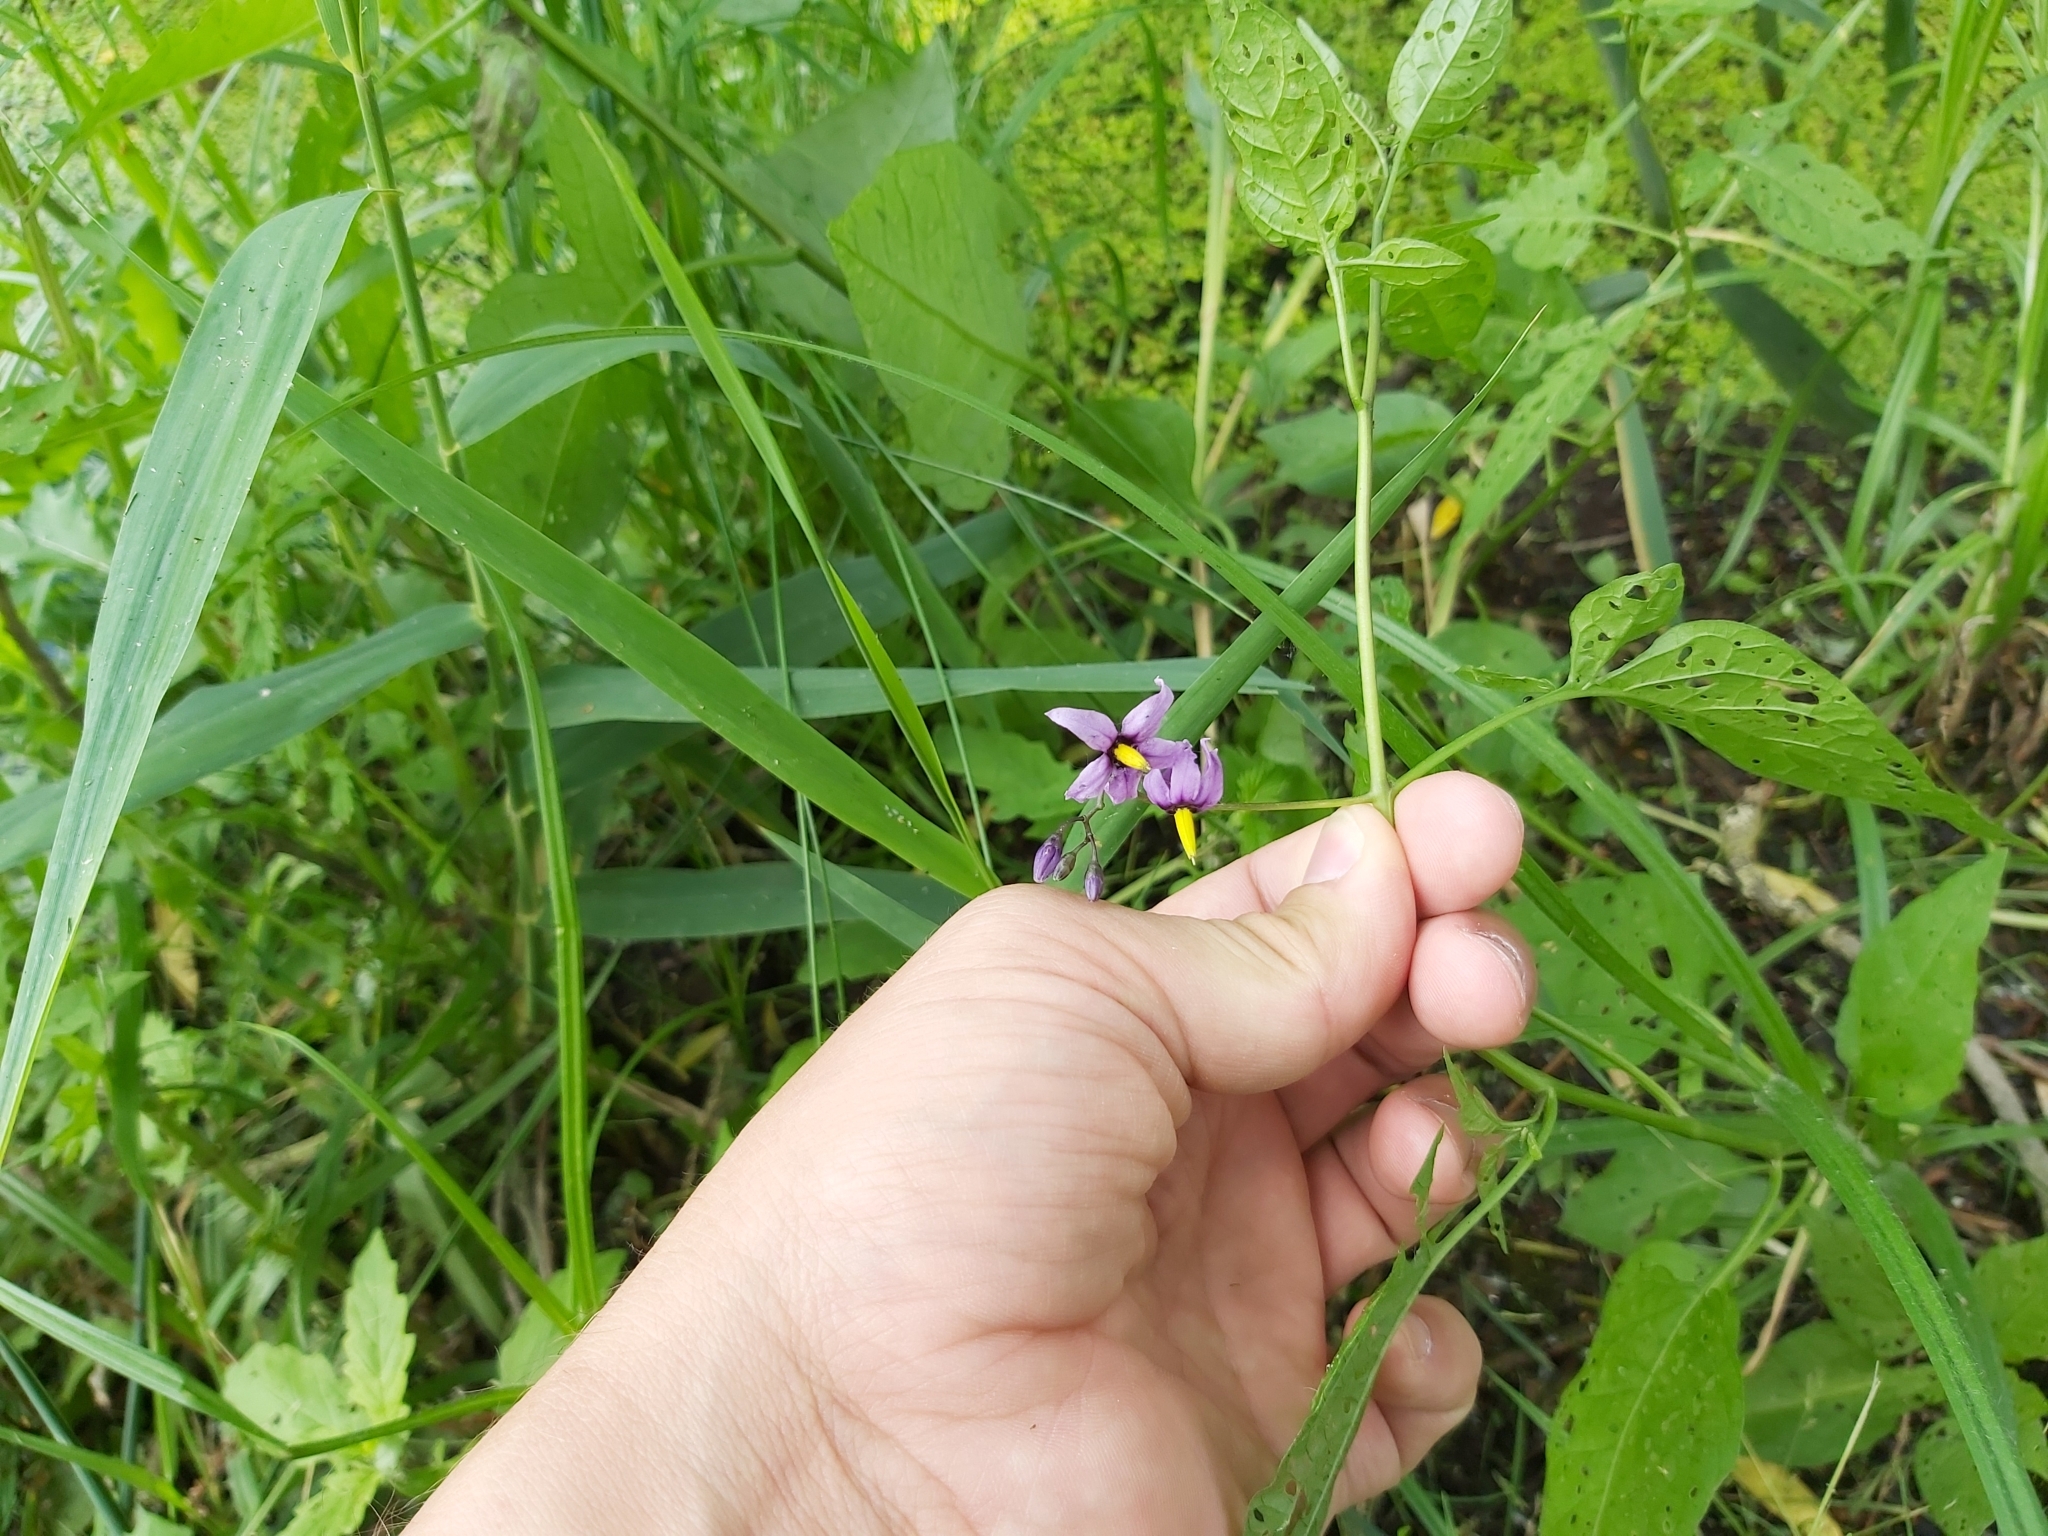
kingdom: Plantae
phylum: Tracheophyta
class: Magnoliopsida
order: Solanales
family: Solanaceae
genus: Solanum
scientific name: Solanum dulcamara
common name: Climbing nightshade
